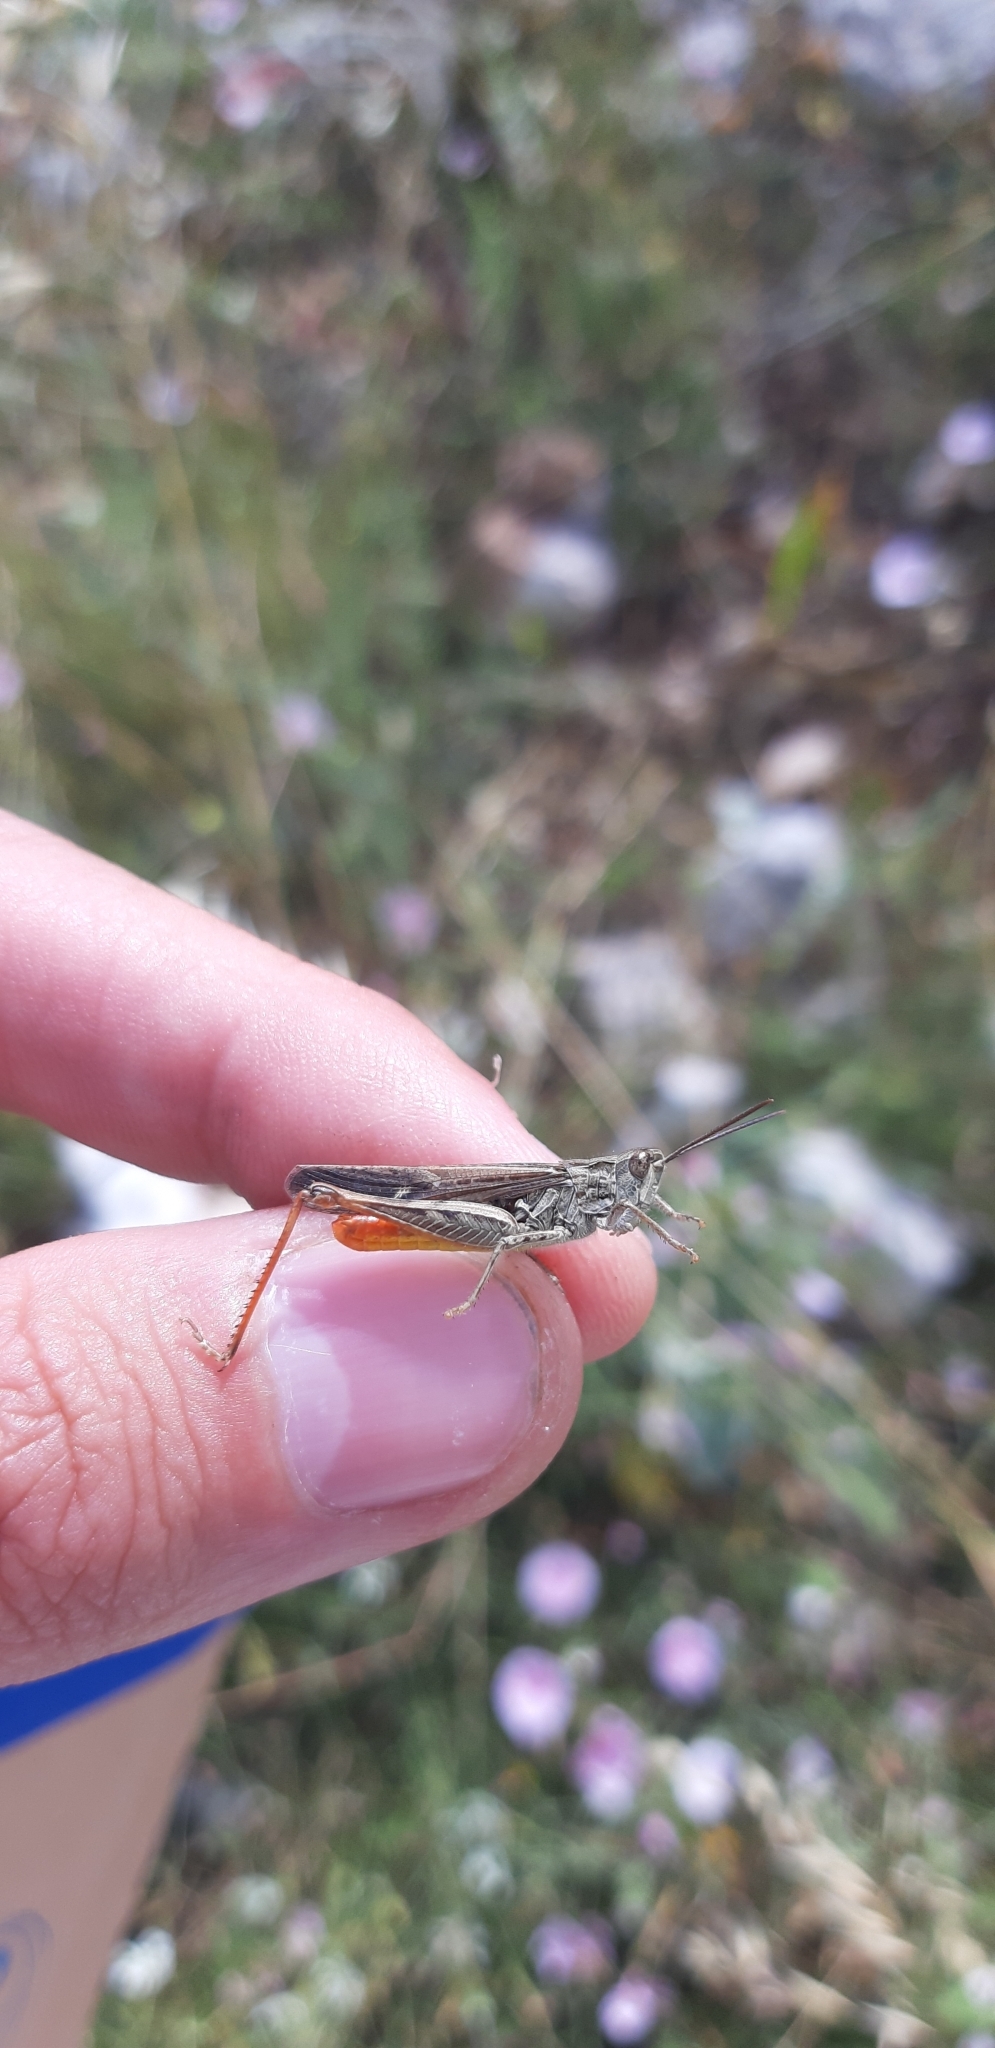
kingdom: Animalia
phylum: Arthropoda
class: Insecta
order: Orthoptera
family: Acrididae
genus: Chorthippus
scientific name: Chorthippus brunneus
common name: Field grasshopper
